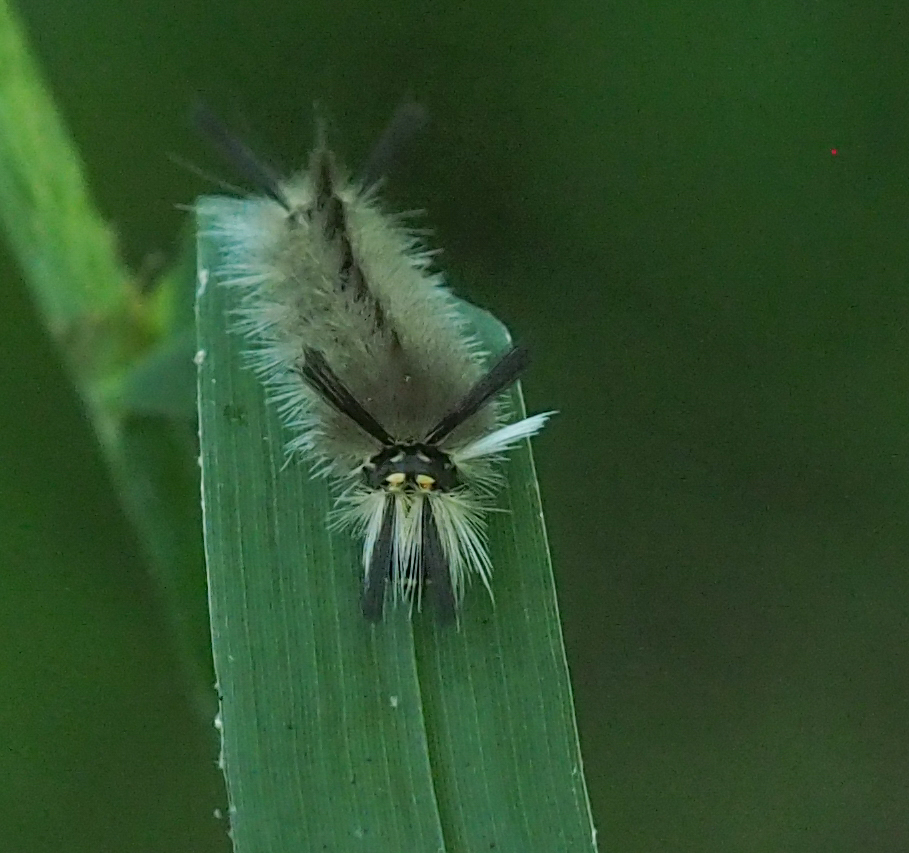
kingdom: Animalia
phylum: Arthropoda
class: Insecta
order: Lepidoptera
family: Erebidae
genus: Halysidota
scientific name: Halysidota tessellaris
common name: Banded tussock moth
